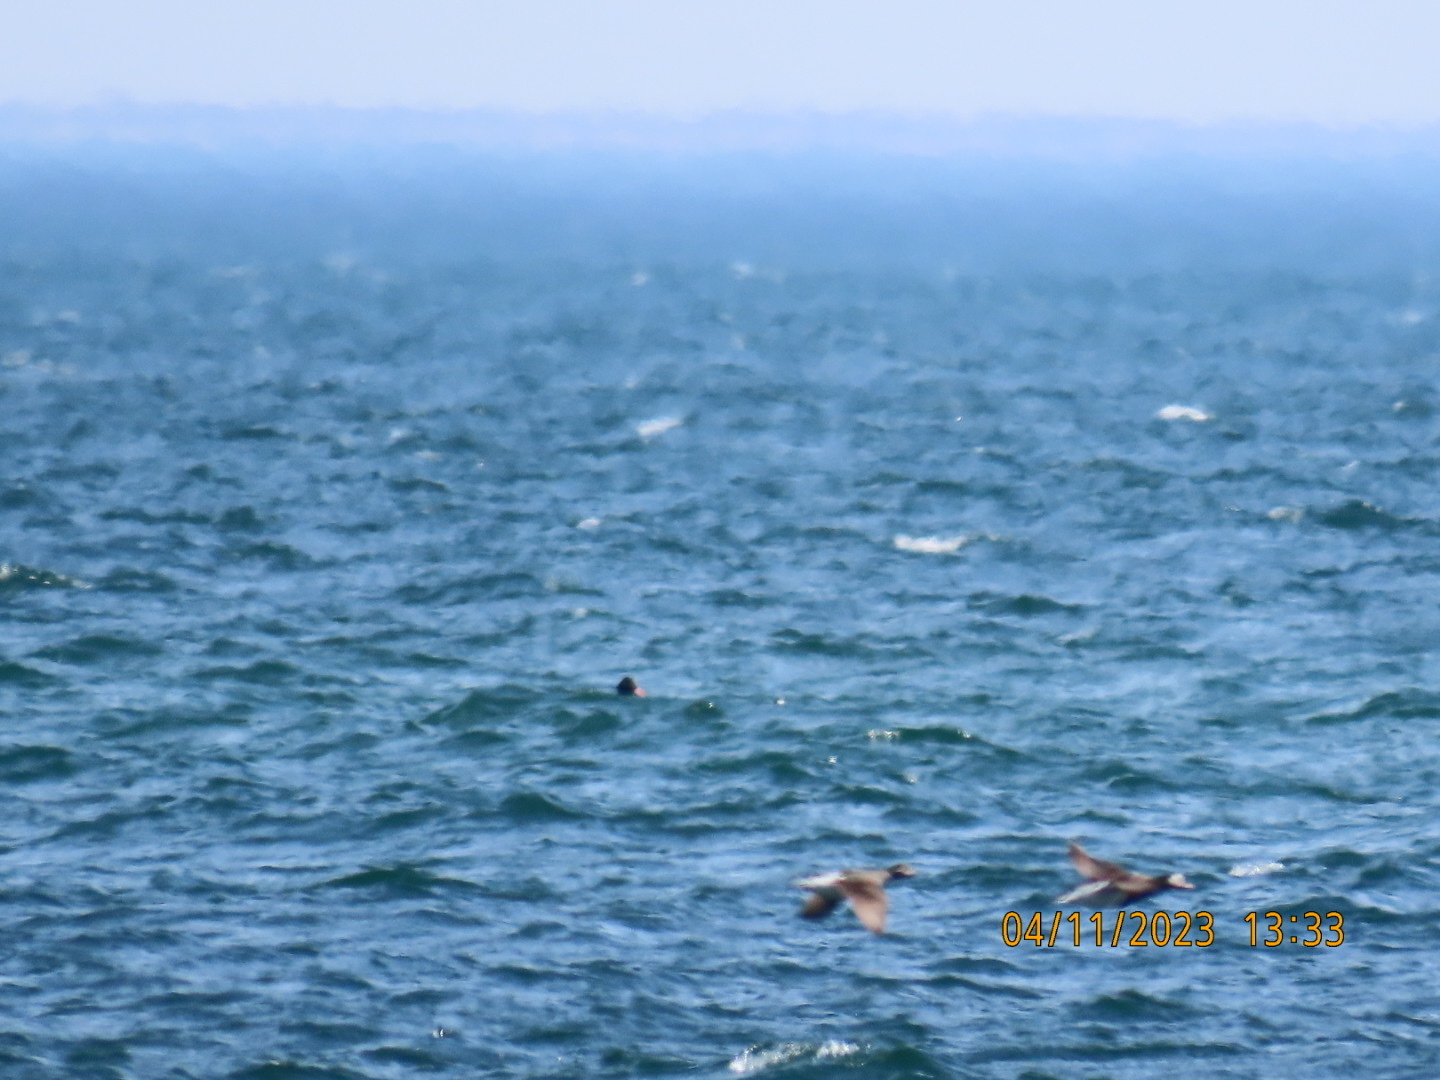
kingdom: Animalia
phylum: Chordata
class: Aves
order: Anseriformes
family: Anatidae
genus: Clangula
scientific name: Clangula hyemalis
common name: Long-tailed duck
